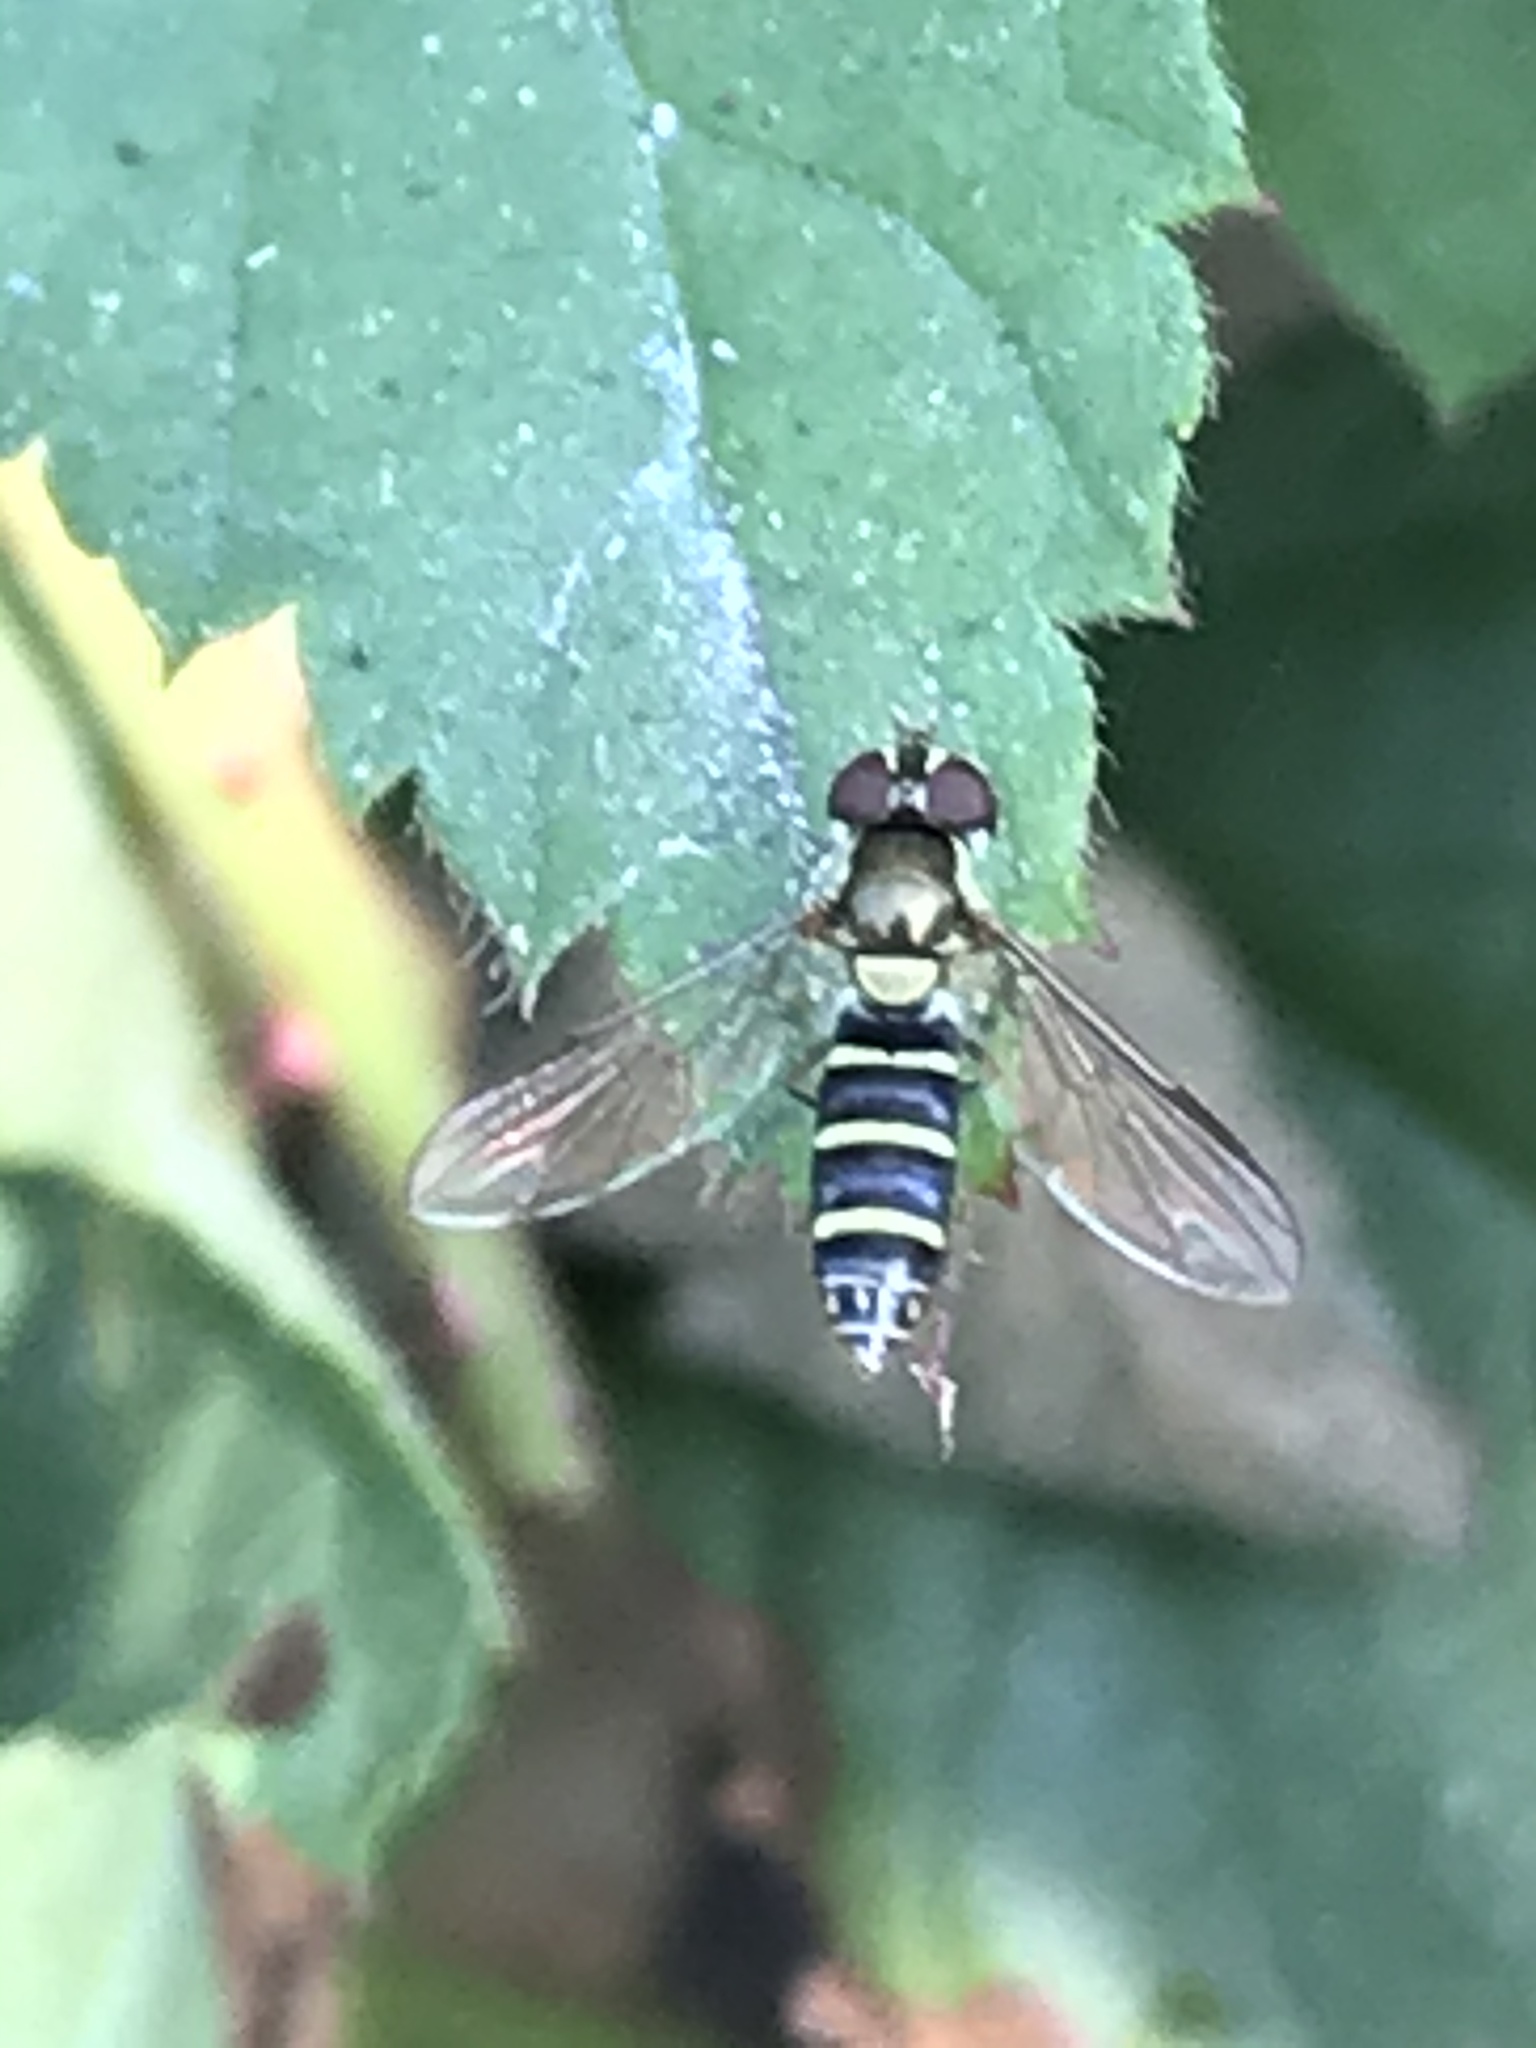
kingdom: Animalia
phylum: Arthropoda
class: Insecta
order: Diptera
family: Syrphidae
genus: Fazia
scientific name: Fazia micrura
